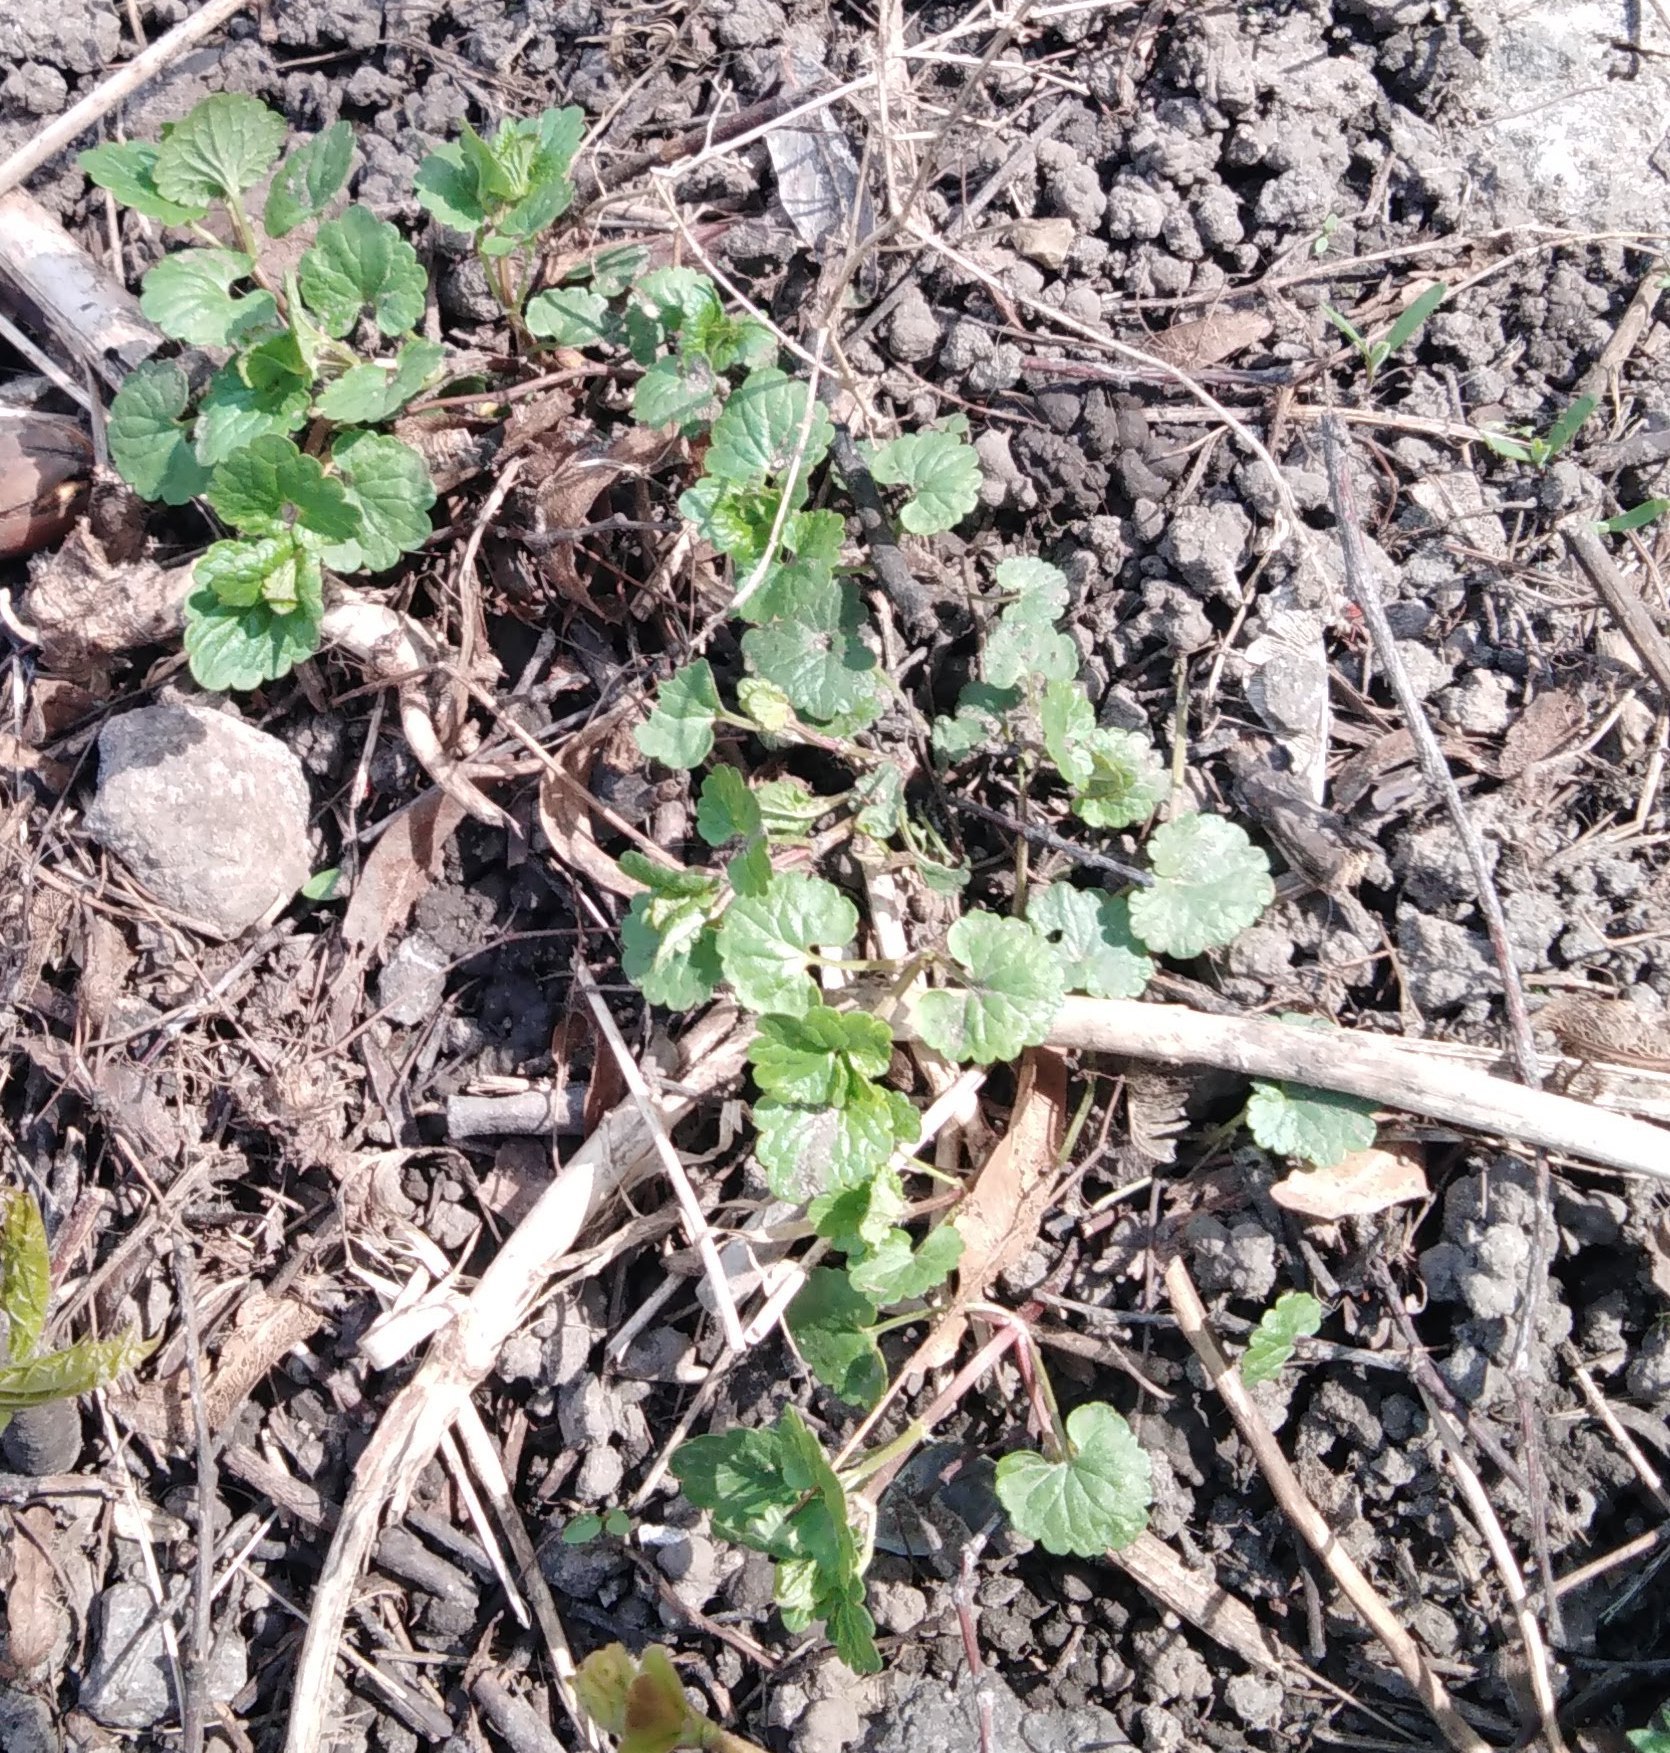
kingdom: Plantae
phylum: Tracheophyta
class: Magnoliopsida
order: Lamiales
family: Lamiaceae
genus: Glechoma
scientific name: Glechoma hederacea
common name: Ground ivy
